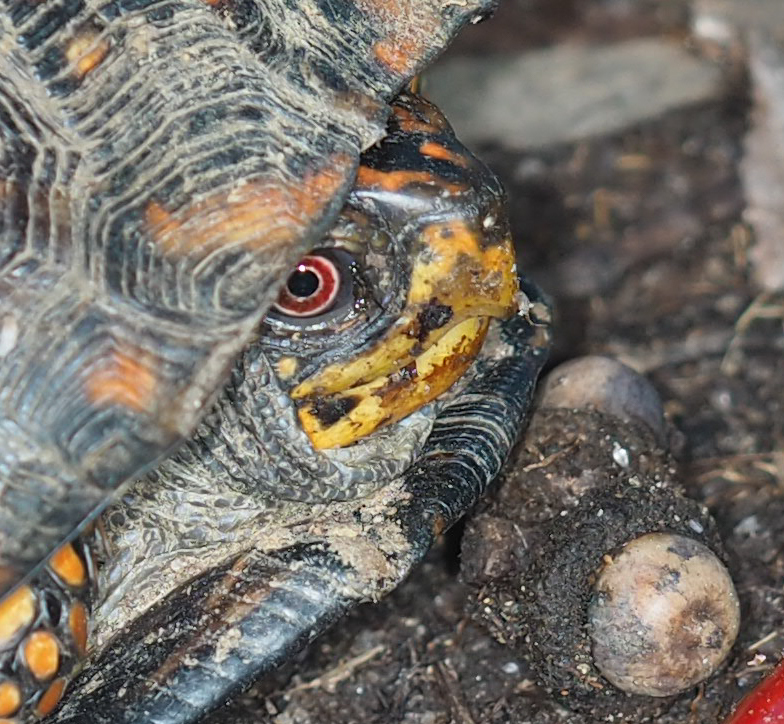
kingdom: Animalia
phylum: Chordata
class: Testudines
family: Emydidae
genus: Terrapene
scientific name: Terrapene carolina
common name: Common box turtle
